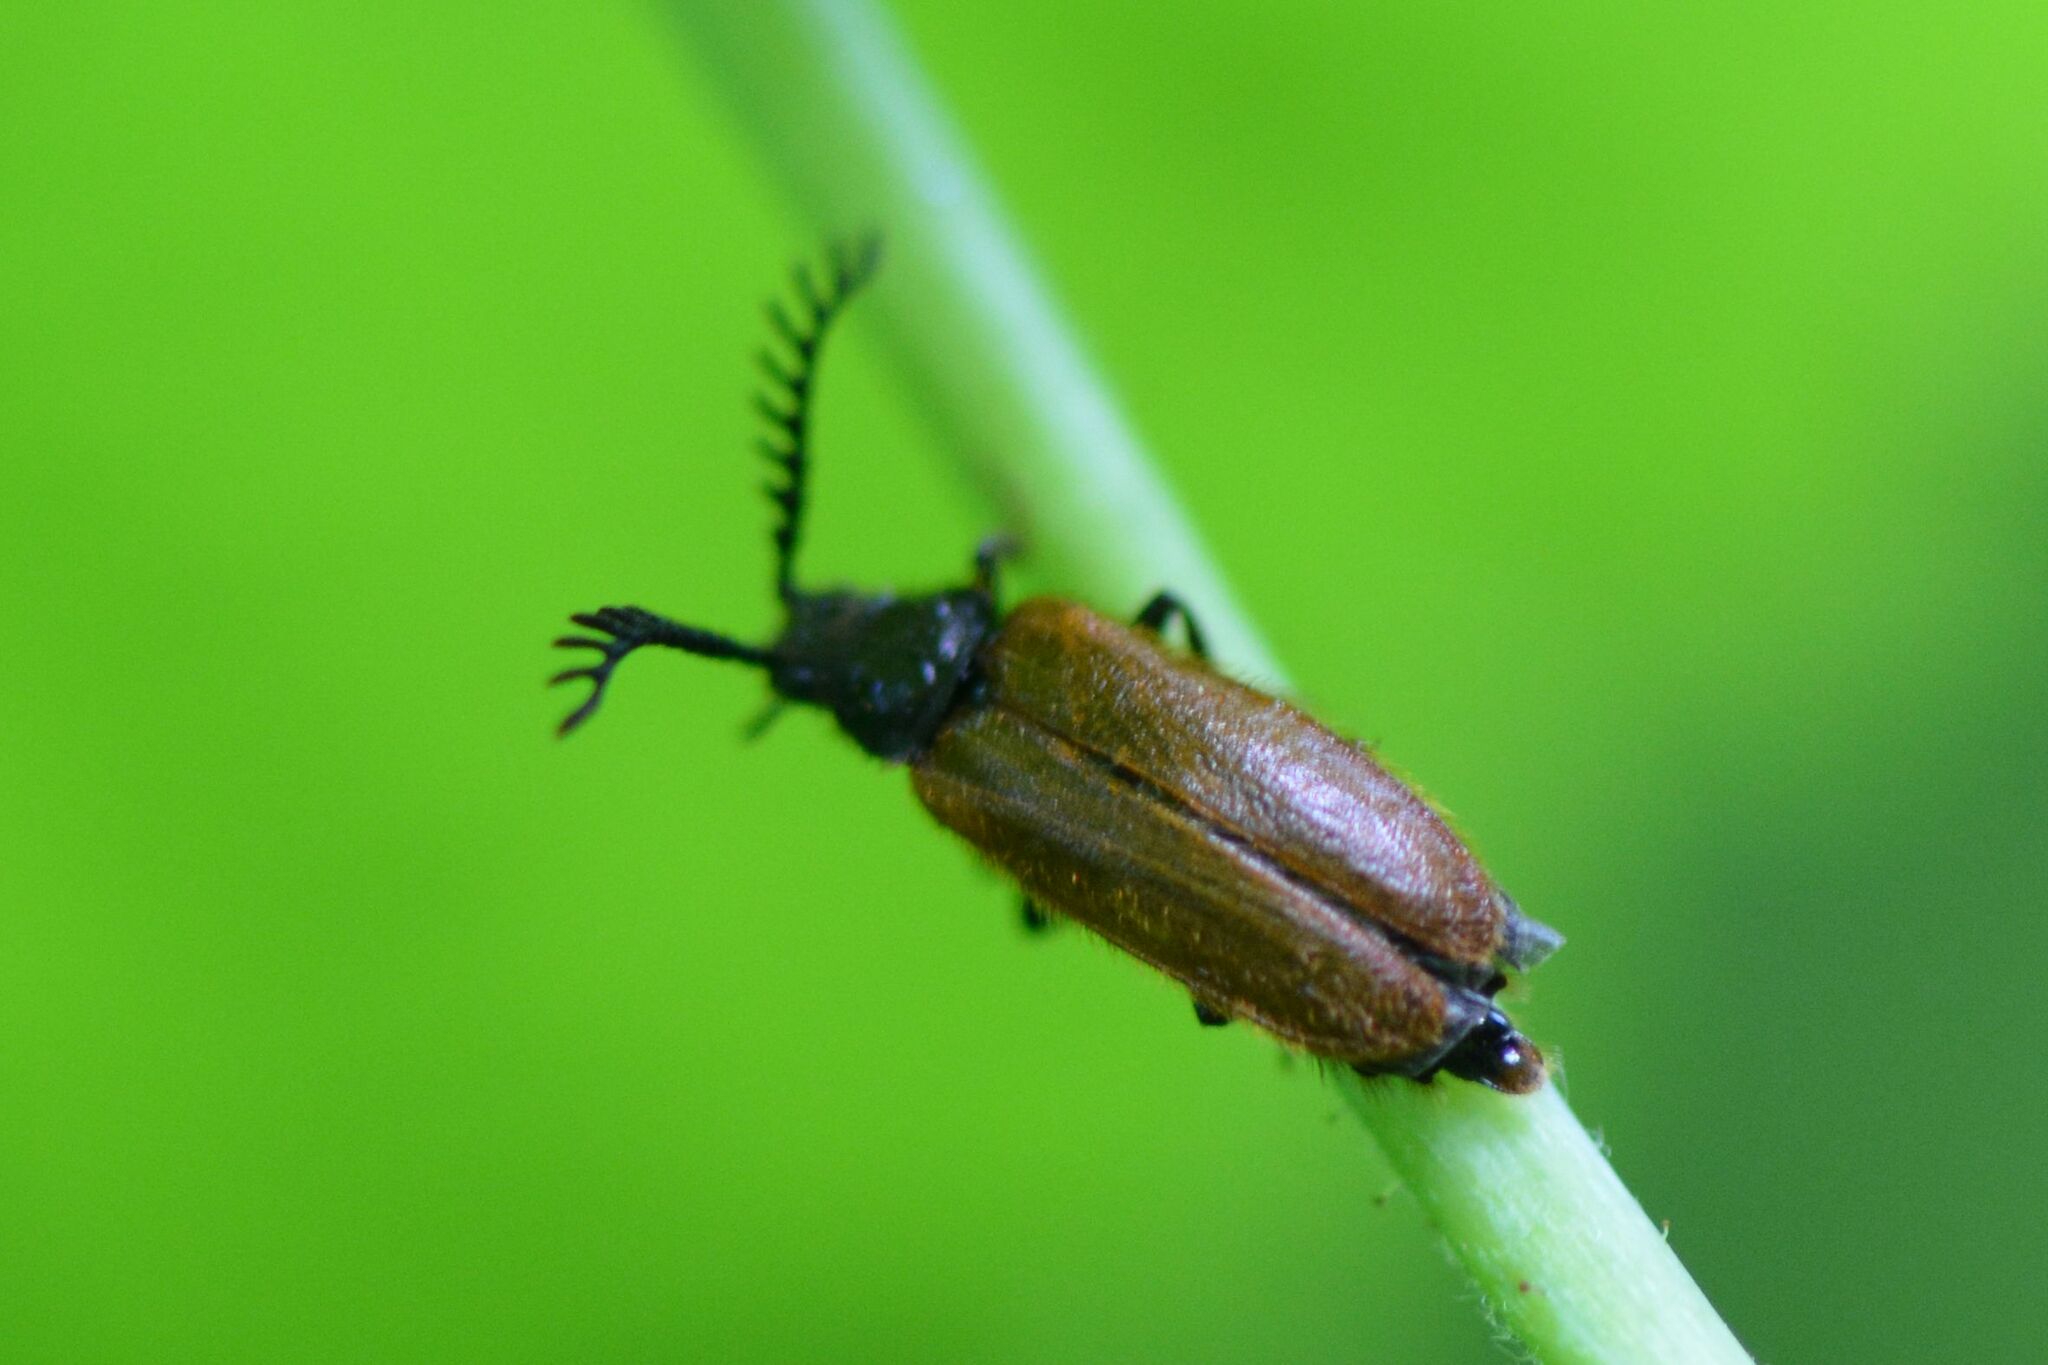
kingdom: Animalia
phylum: Arthropoda
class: Insecta
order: Coleoptera
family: Drilidae
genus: Drilus
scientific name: Drilus flavescens
